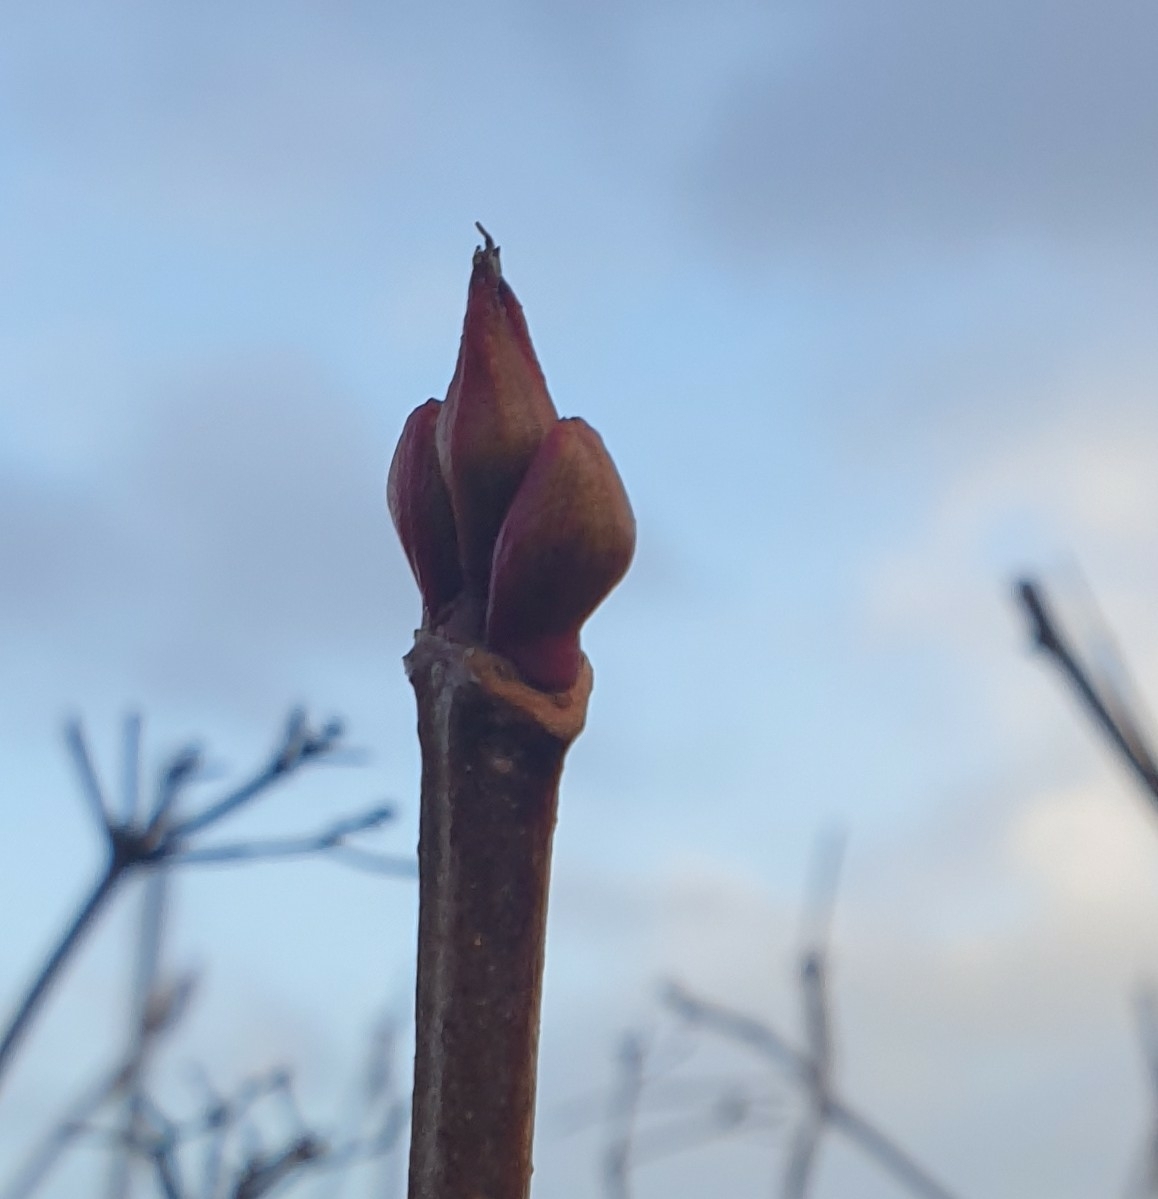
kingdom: Plantae
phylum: Tracheophyta
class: Magnoliopsida
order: Dipsacales
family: Viburnaceae
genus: Viburnum
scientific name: Viburnum opulus
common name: Guelder-rose
